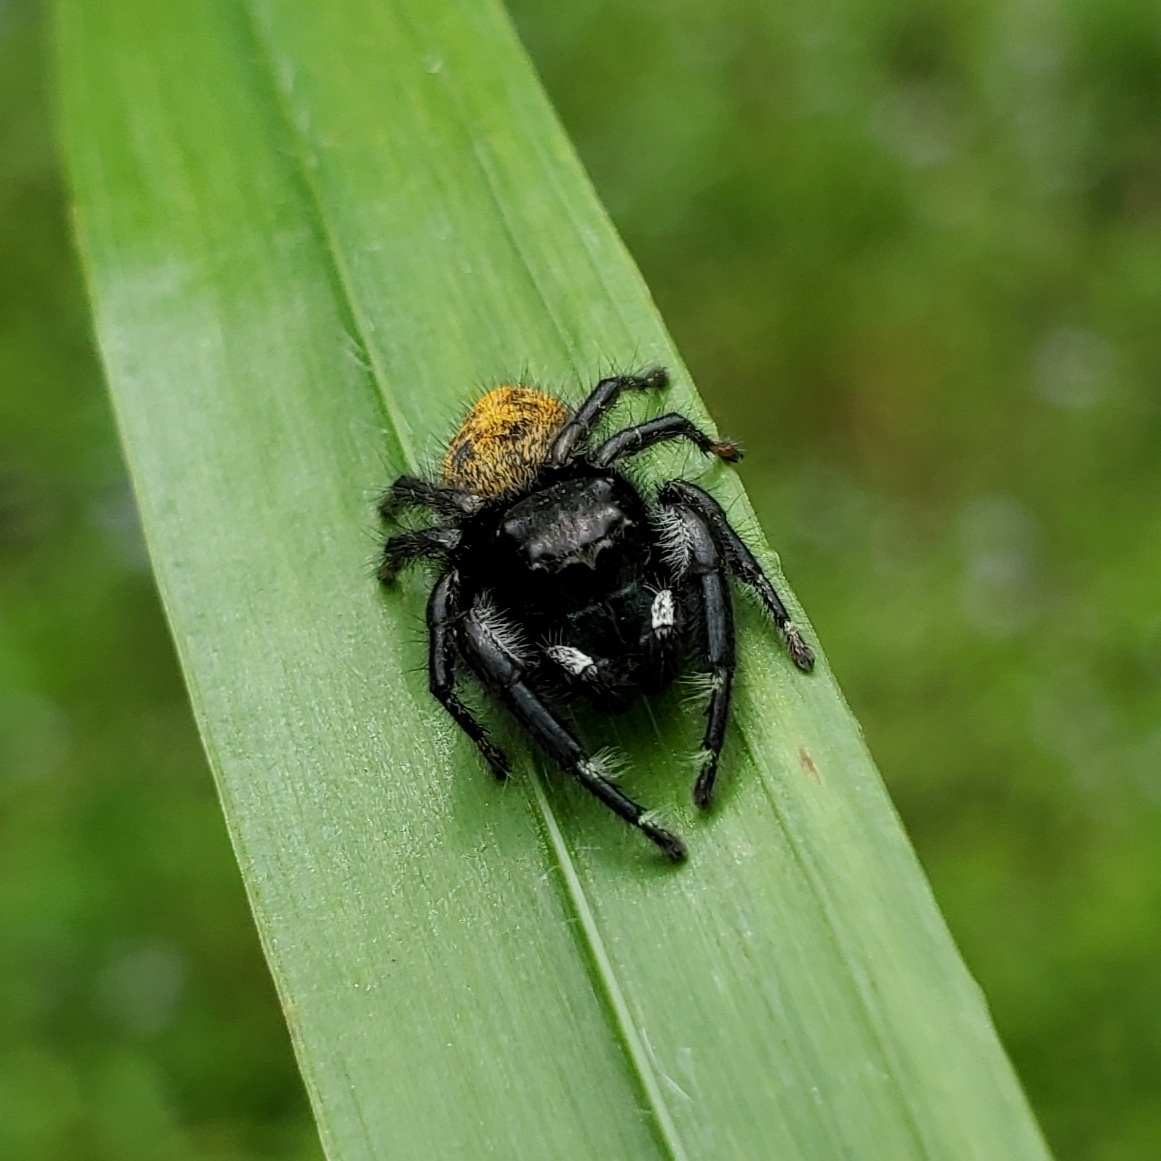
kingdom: Animalia
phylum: Arthropoda
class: Arachnida
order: Araneae
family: Salticidae
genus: Phidippus
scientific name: Phidippus princeps
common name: Grayish jumping spider
